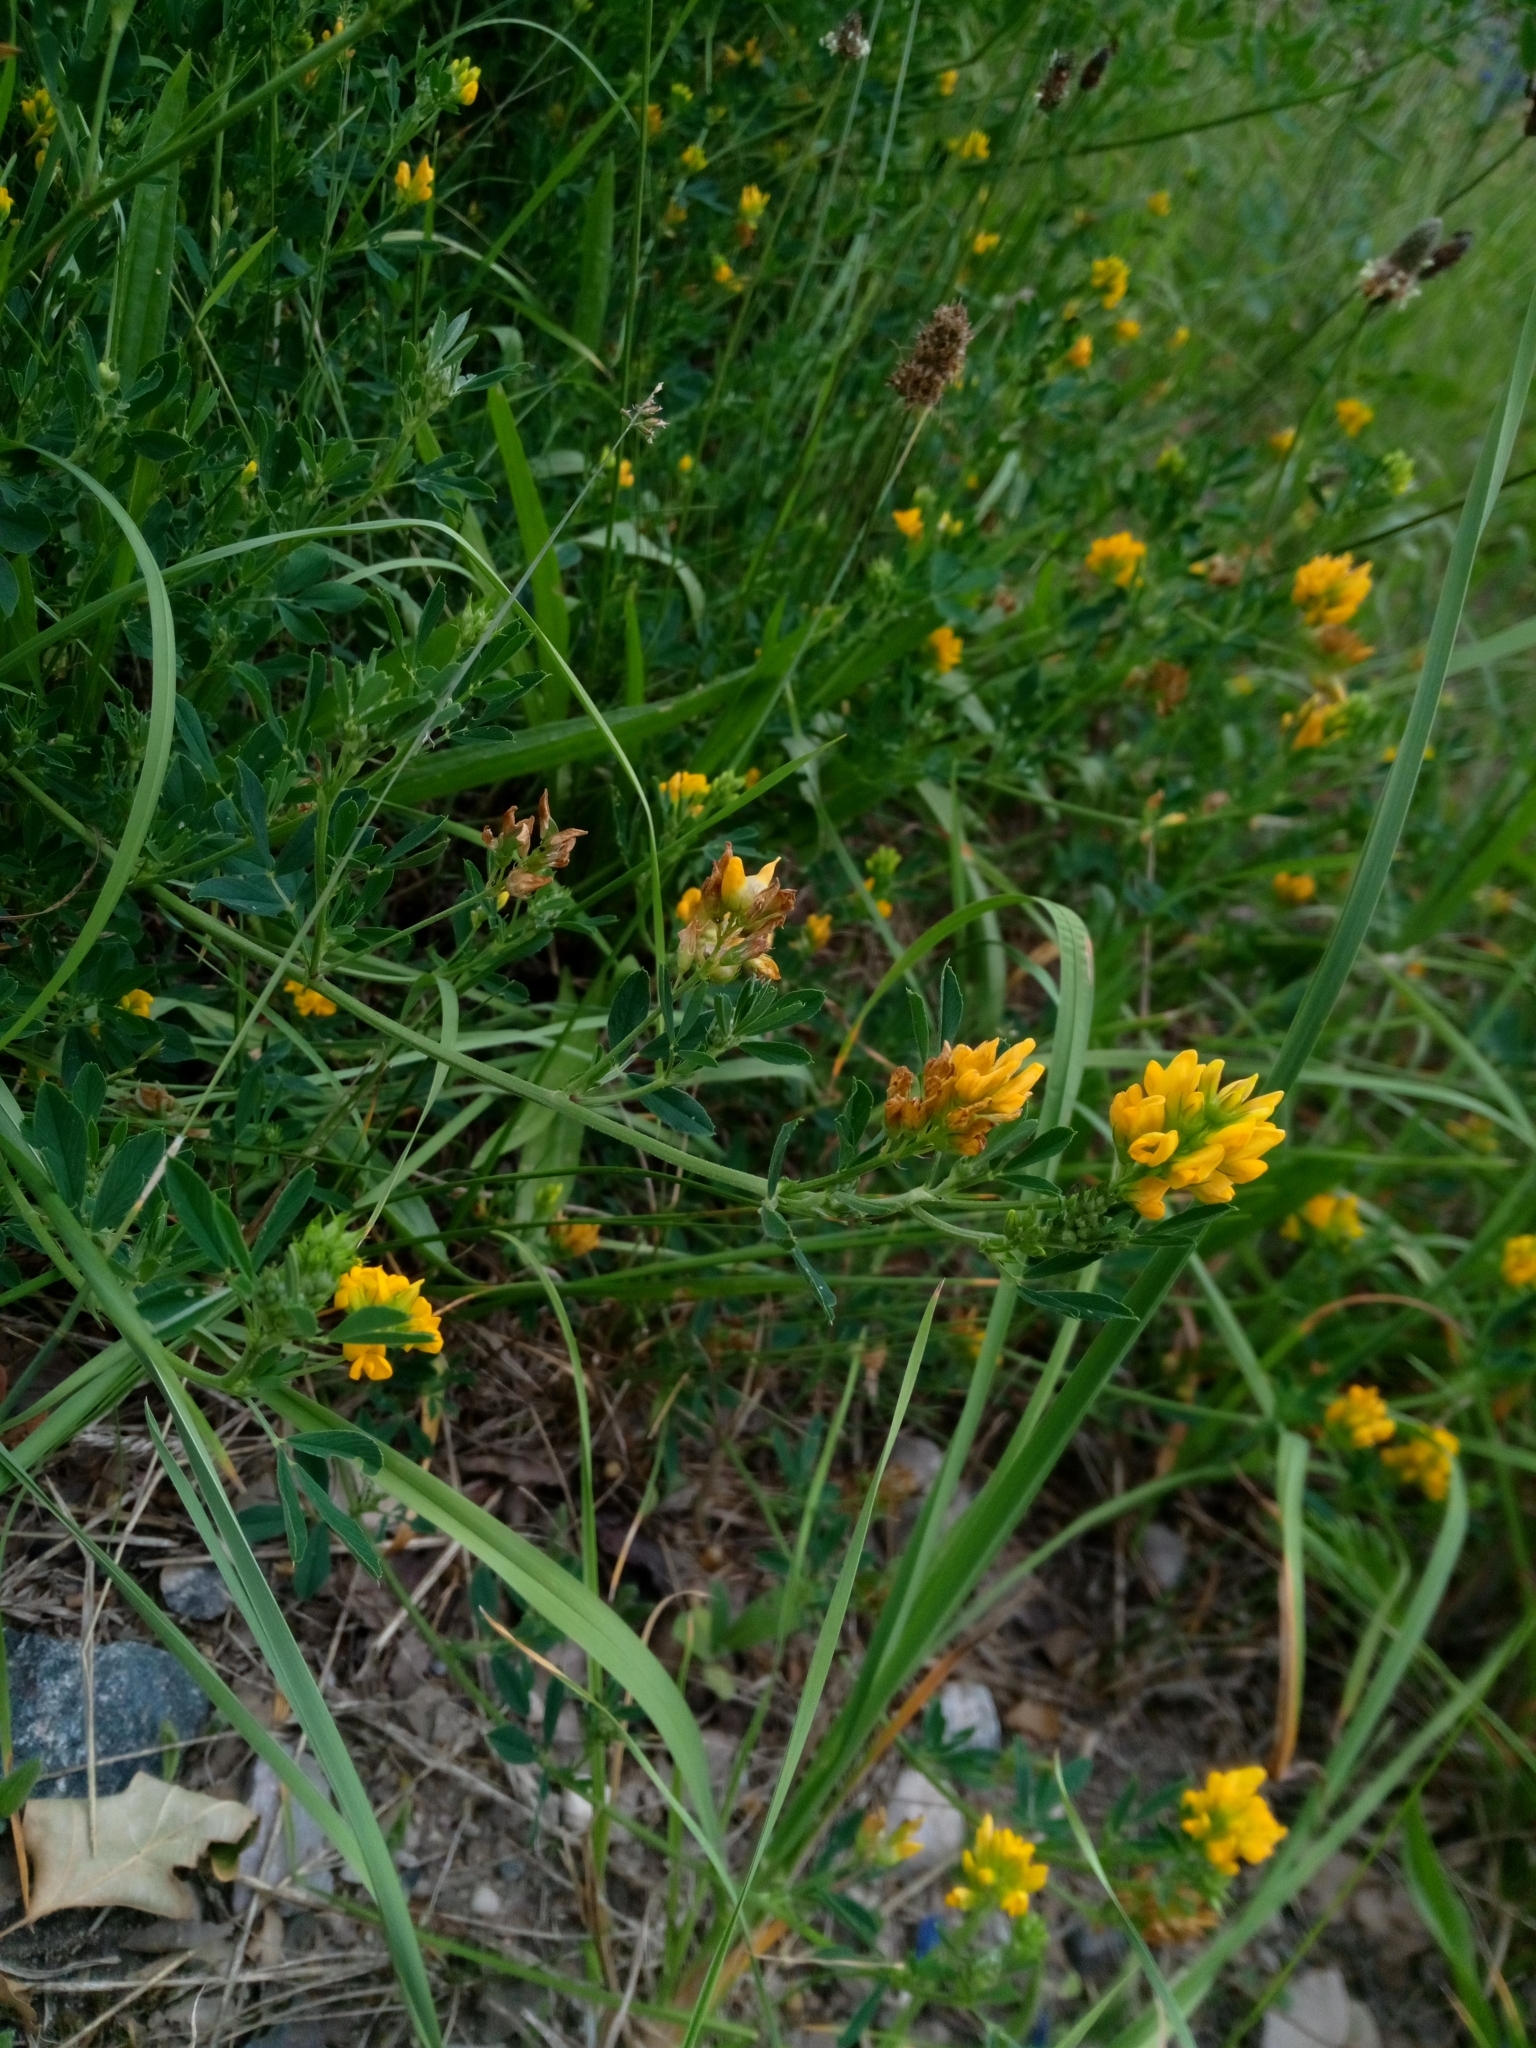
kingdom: Plantae
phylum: Tracheophyta
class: Magnoliopsida
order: Fabales
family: Fabaceae
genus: Medicago
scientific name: Medicago falcata
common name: Sickle medick
